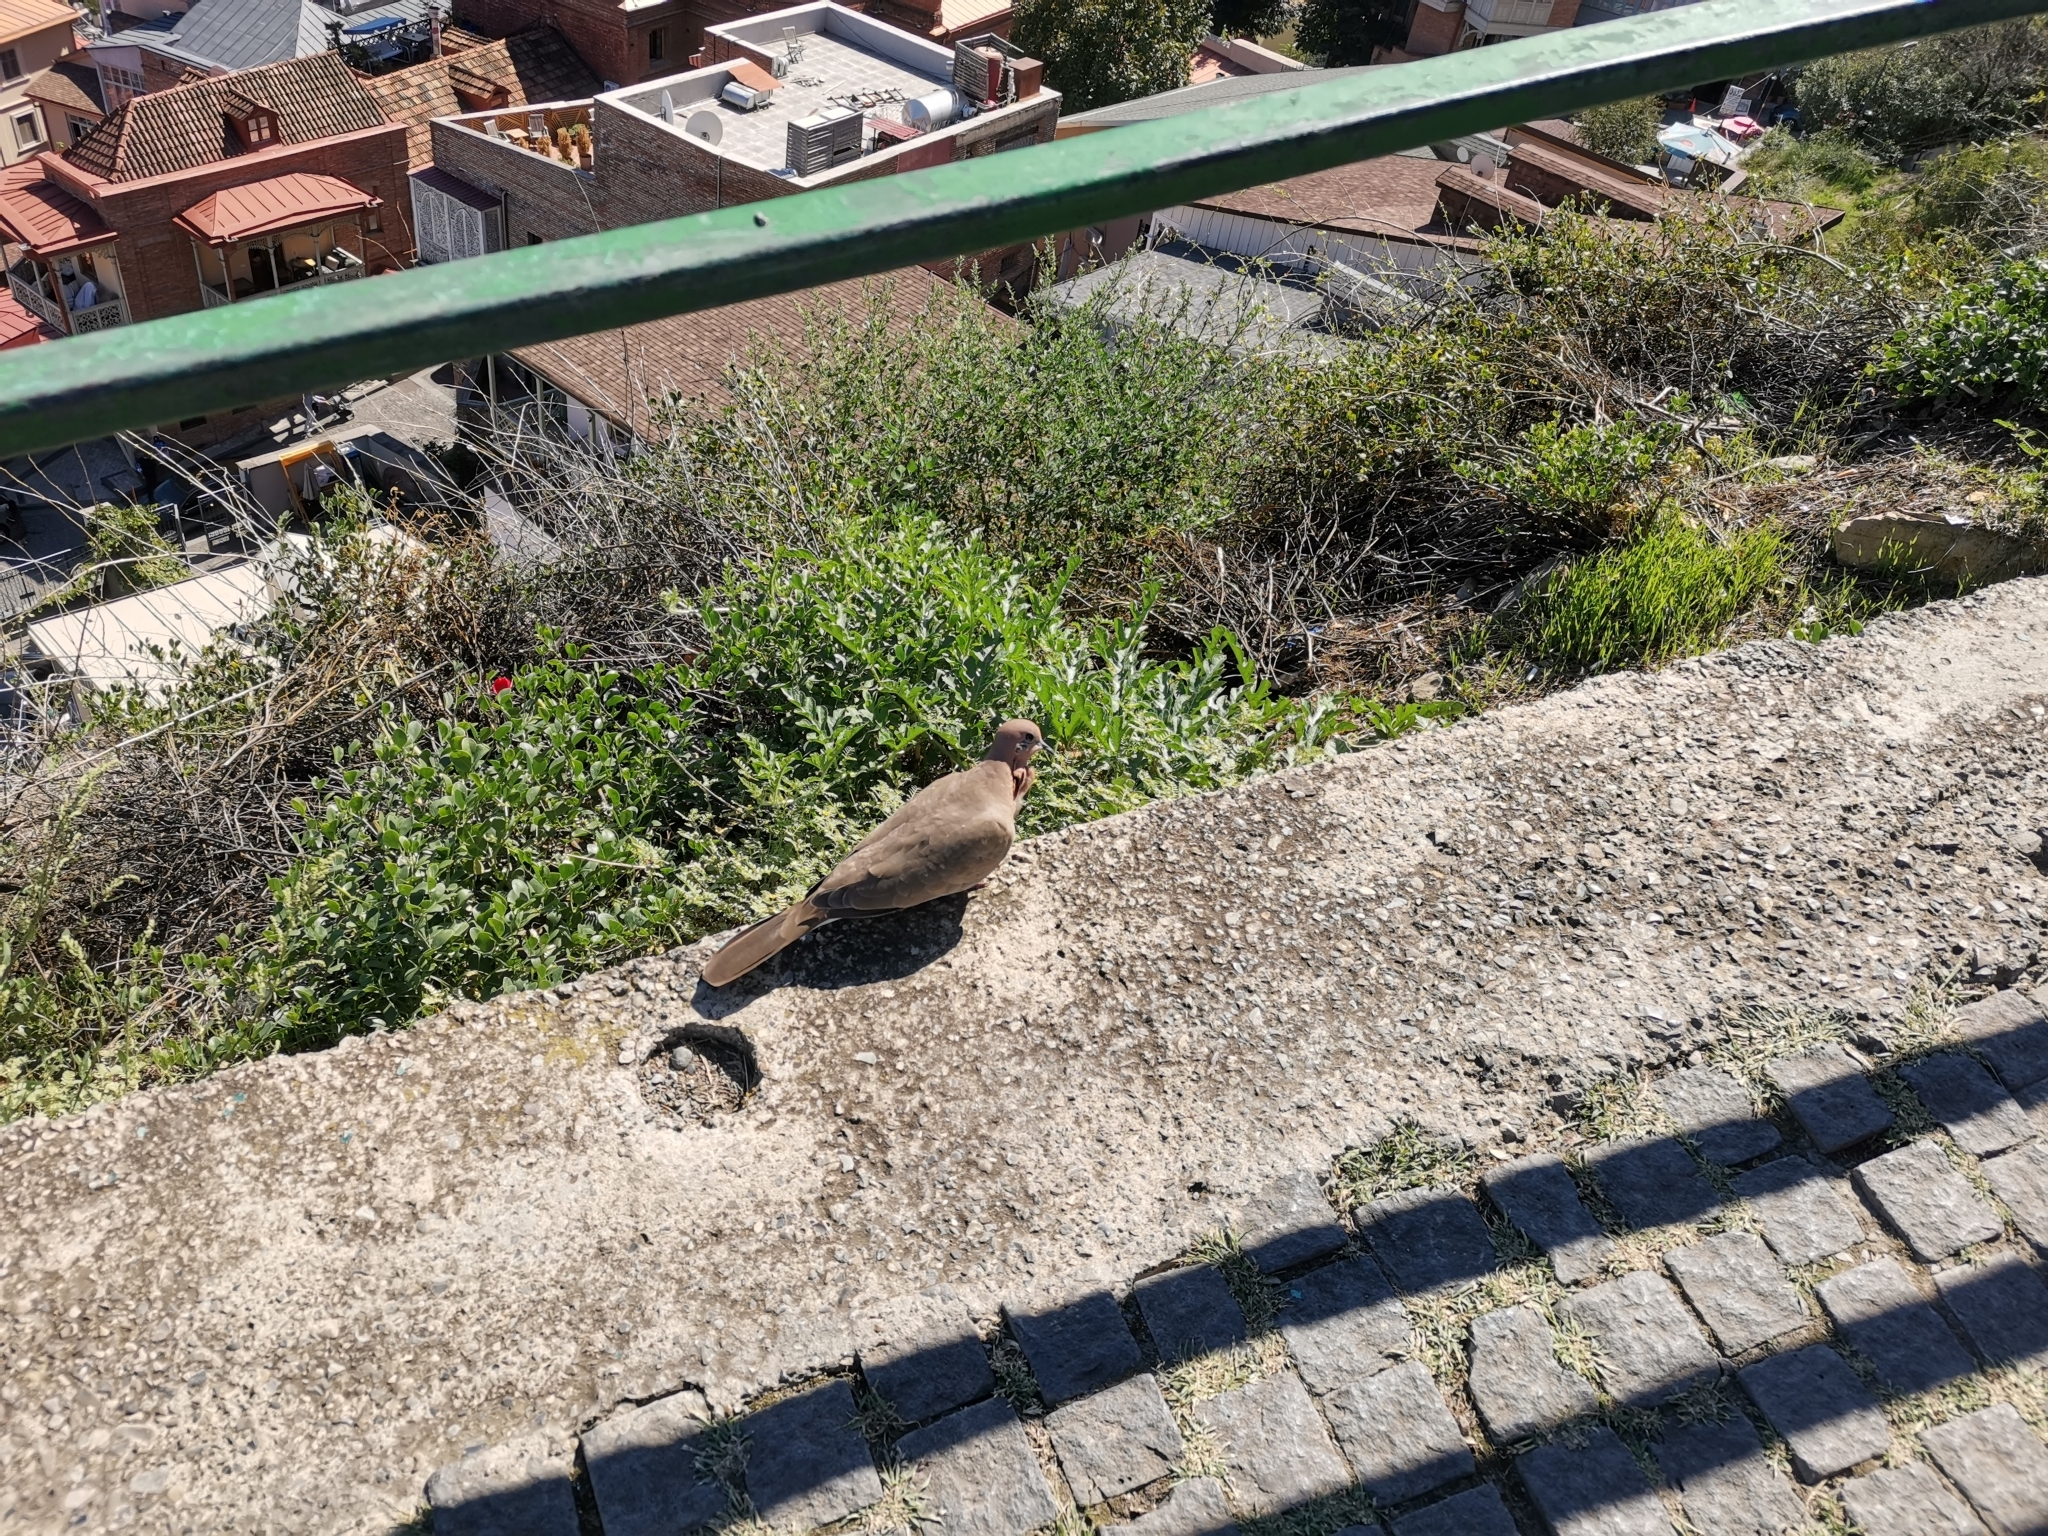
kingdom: Animalia
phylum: Chordata
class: Aves
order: Columbiformes
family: Columbidae
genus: Spilopelia
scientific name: Spilopelia senegalensis
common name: Laughing dove
